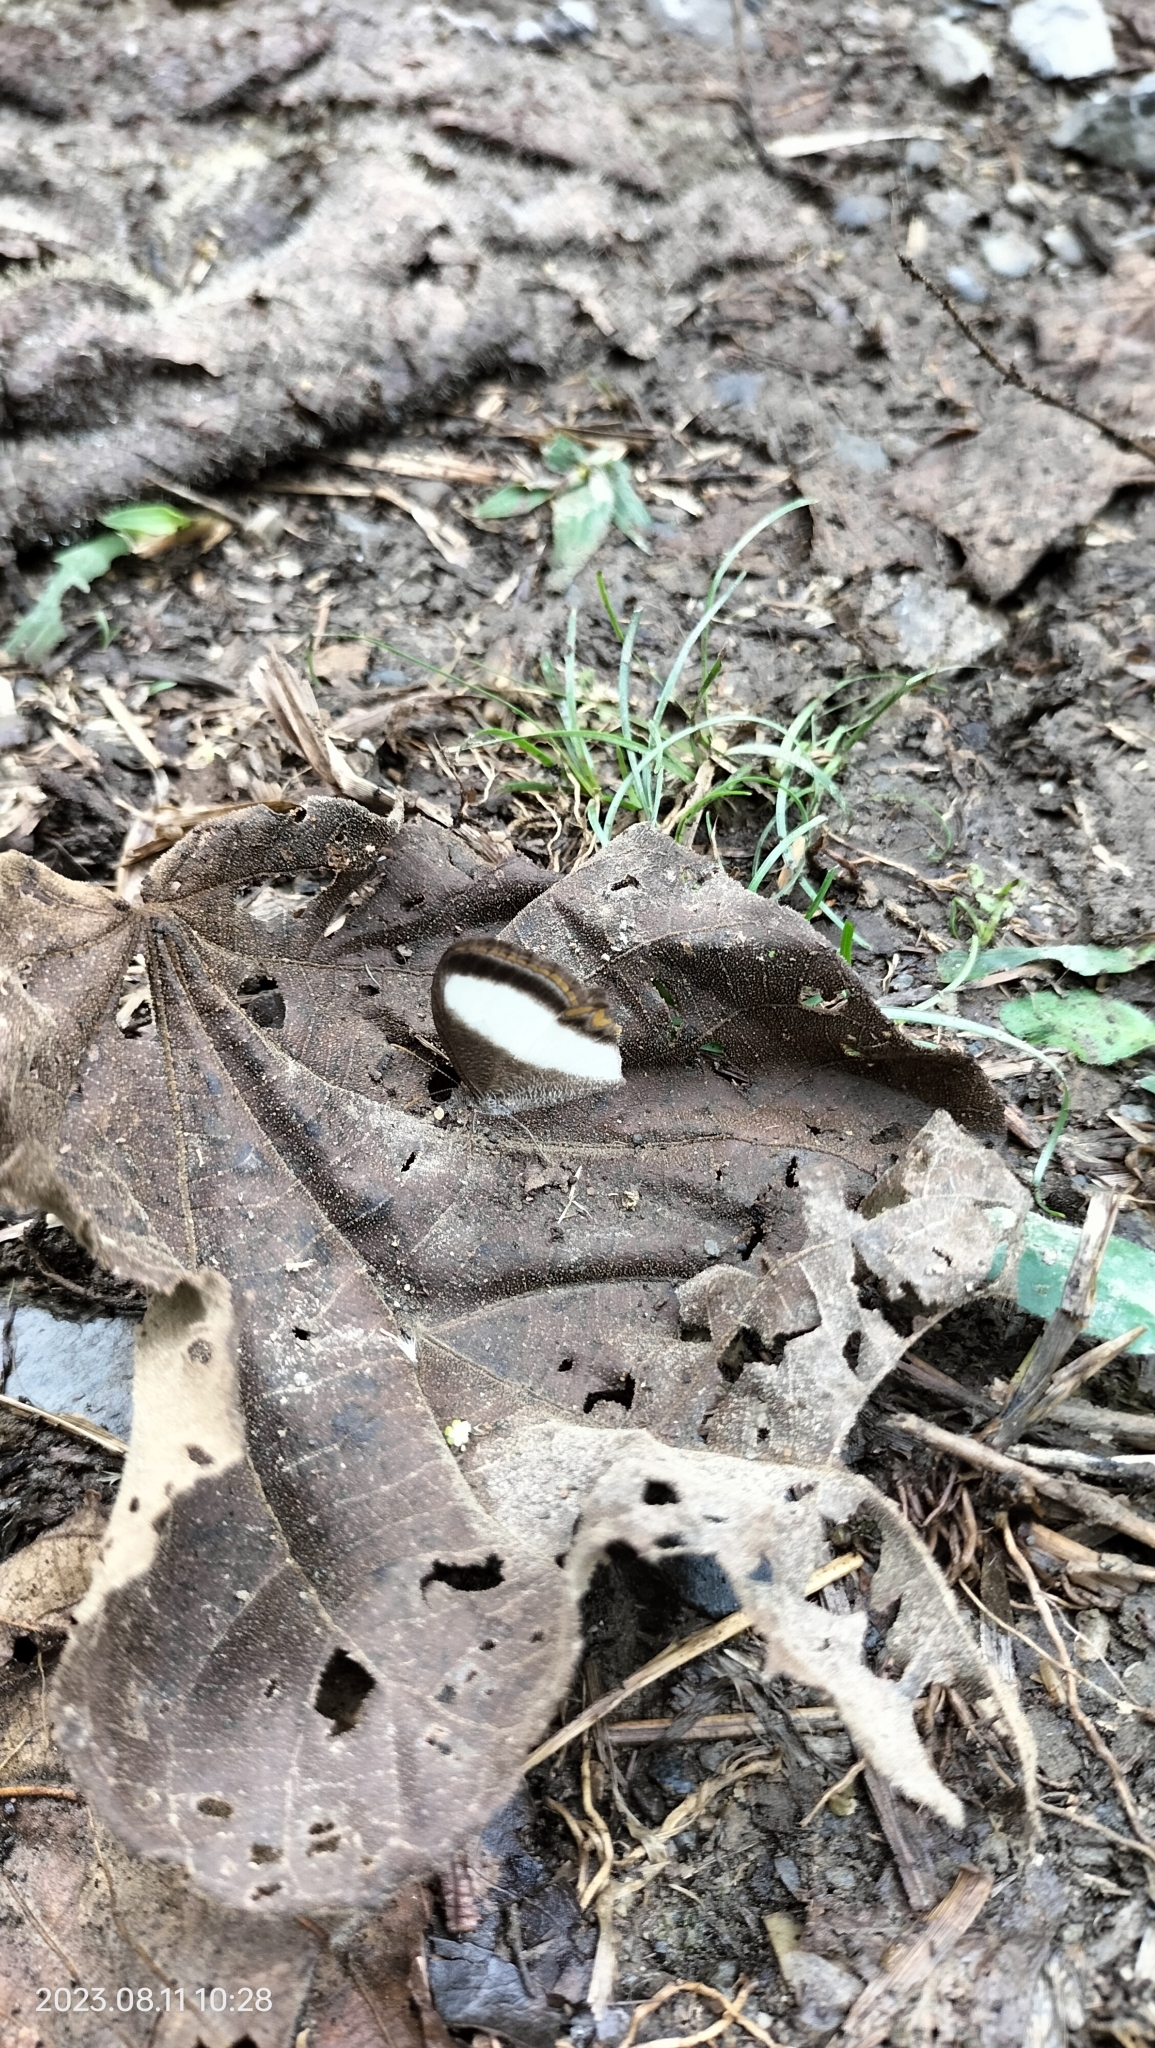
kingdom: Animalia
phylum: Arthropoda
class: Insecta
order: Lepidoptera
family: Nymphalidae
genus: Oressinoma
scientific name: Oressinoma typhla
